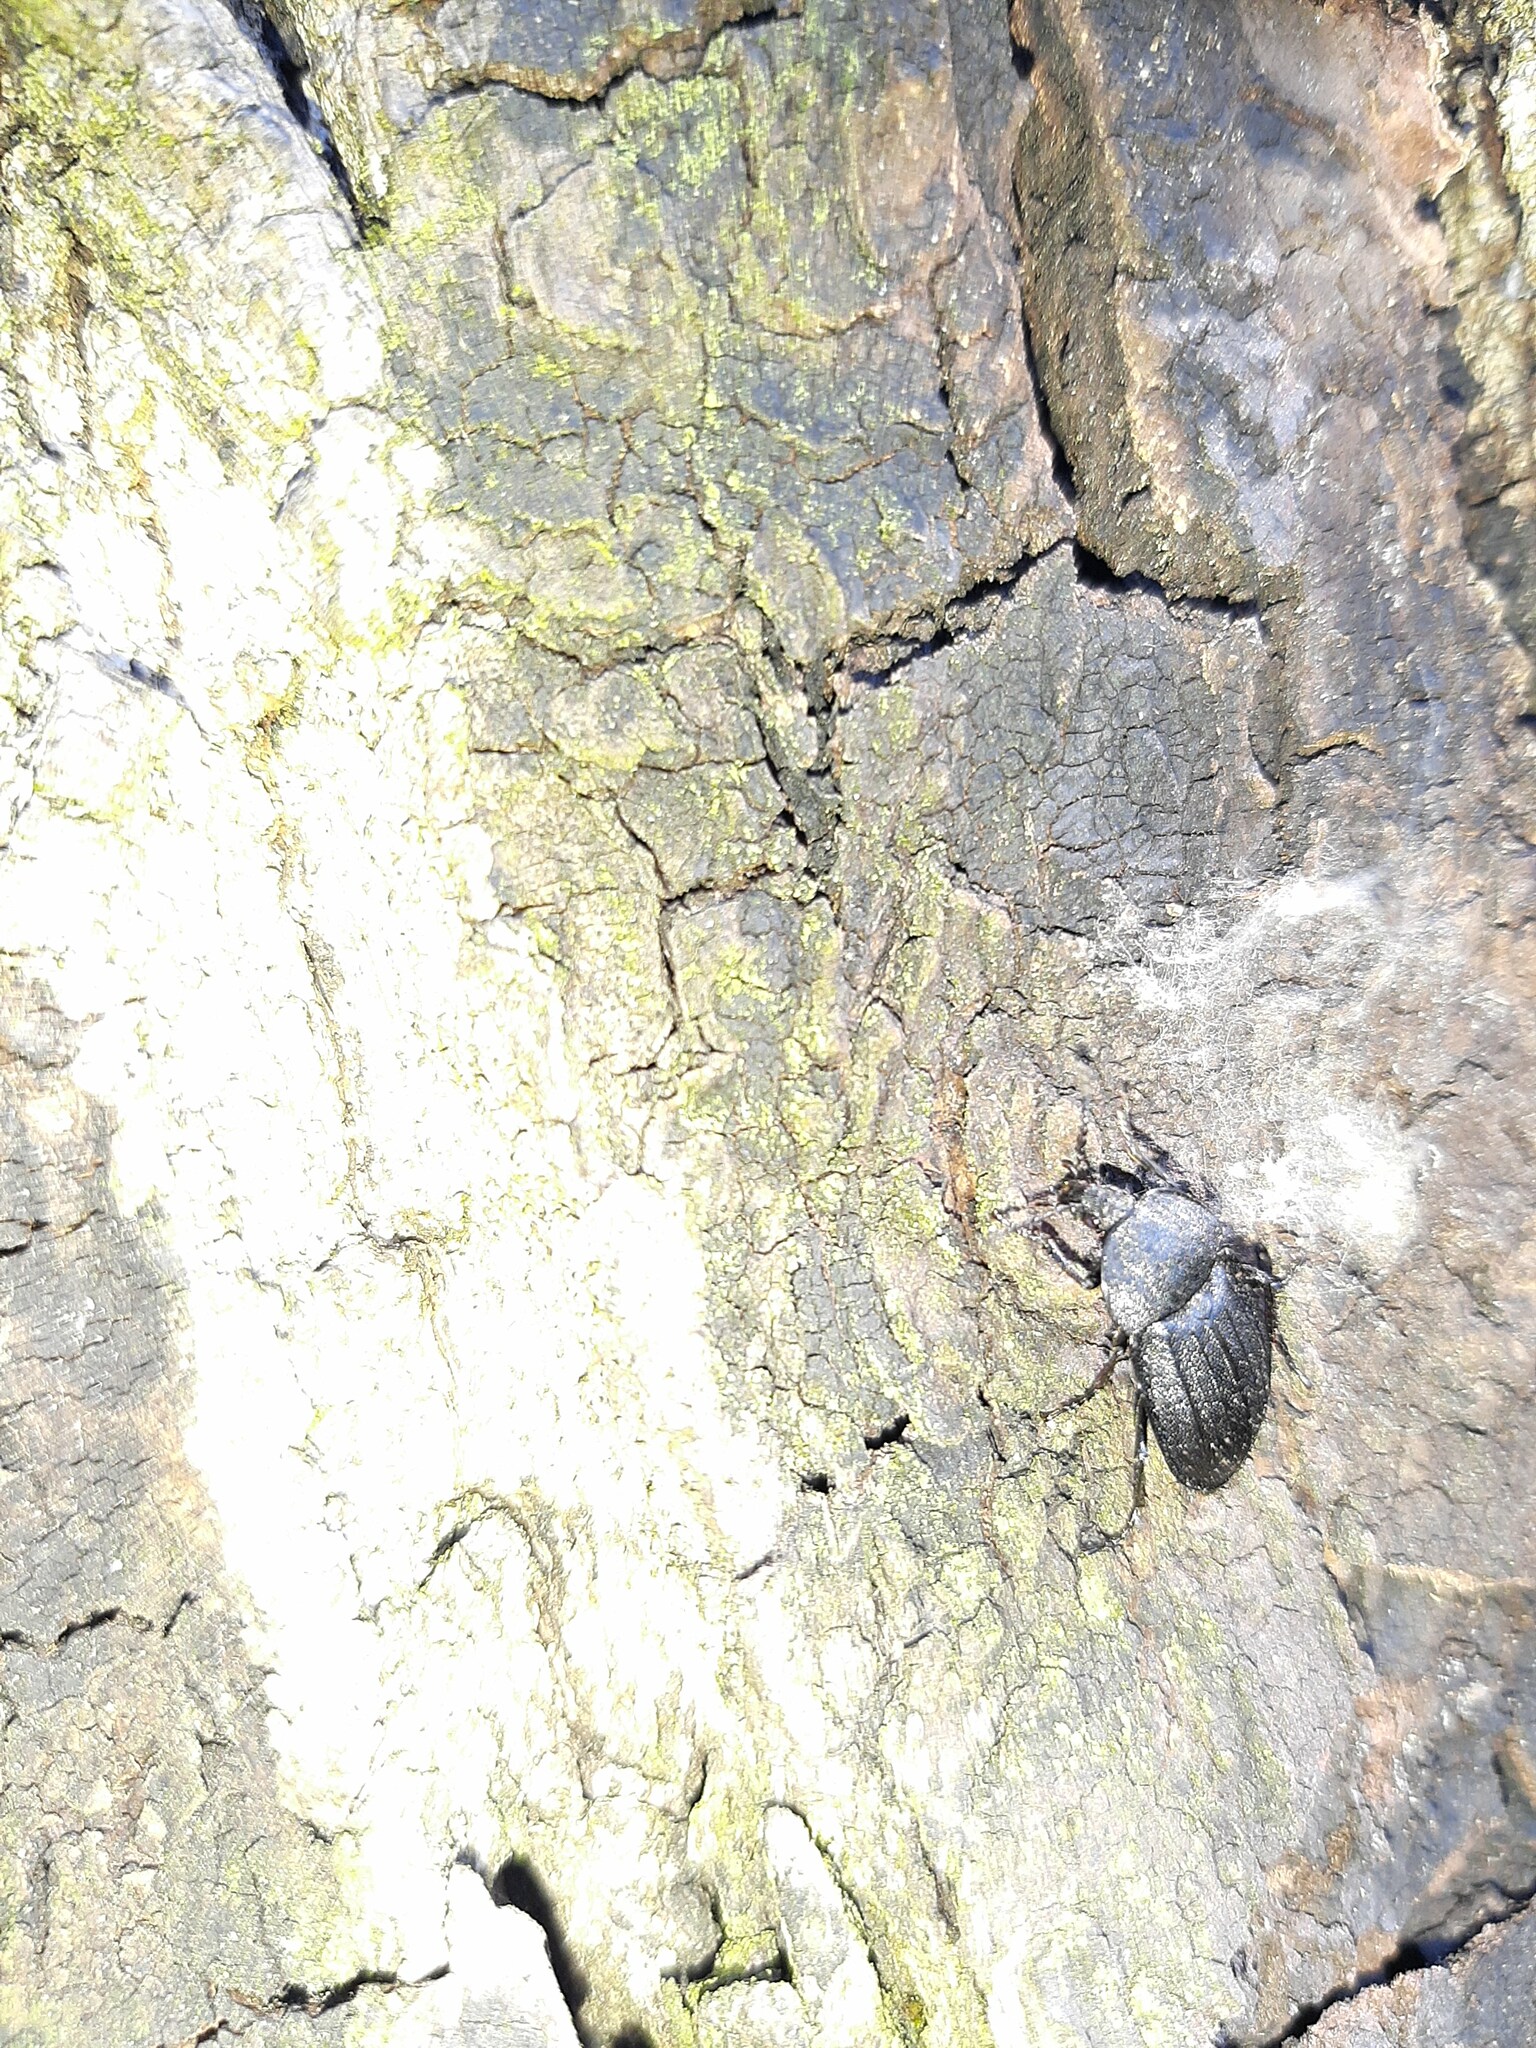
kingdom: Animalia
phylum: Arthropoda
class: Insecta
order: Coleoptera
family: Staphylinidae
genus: Silpha
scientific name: Silpha atrata
